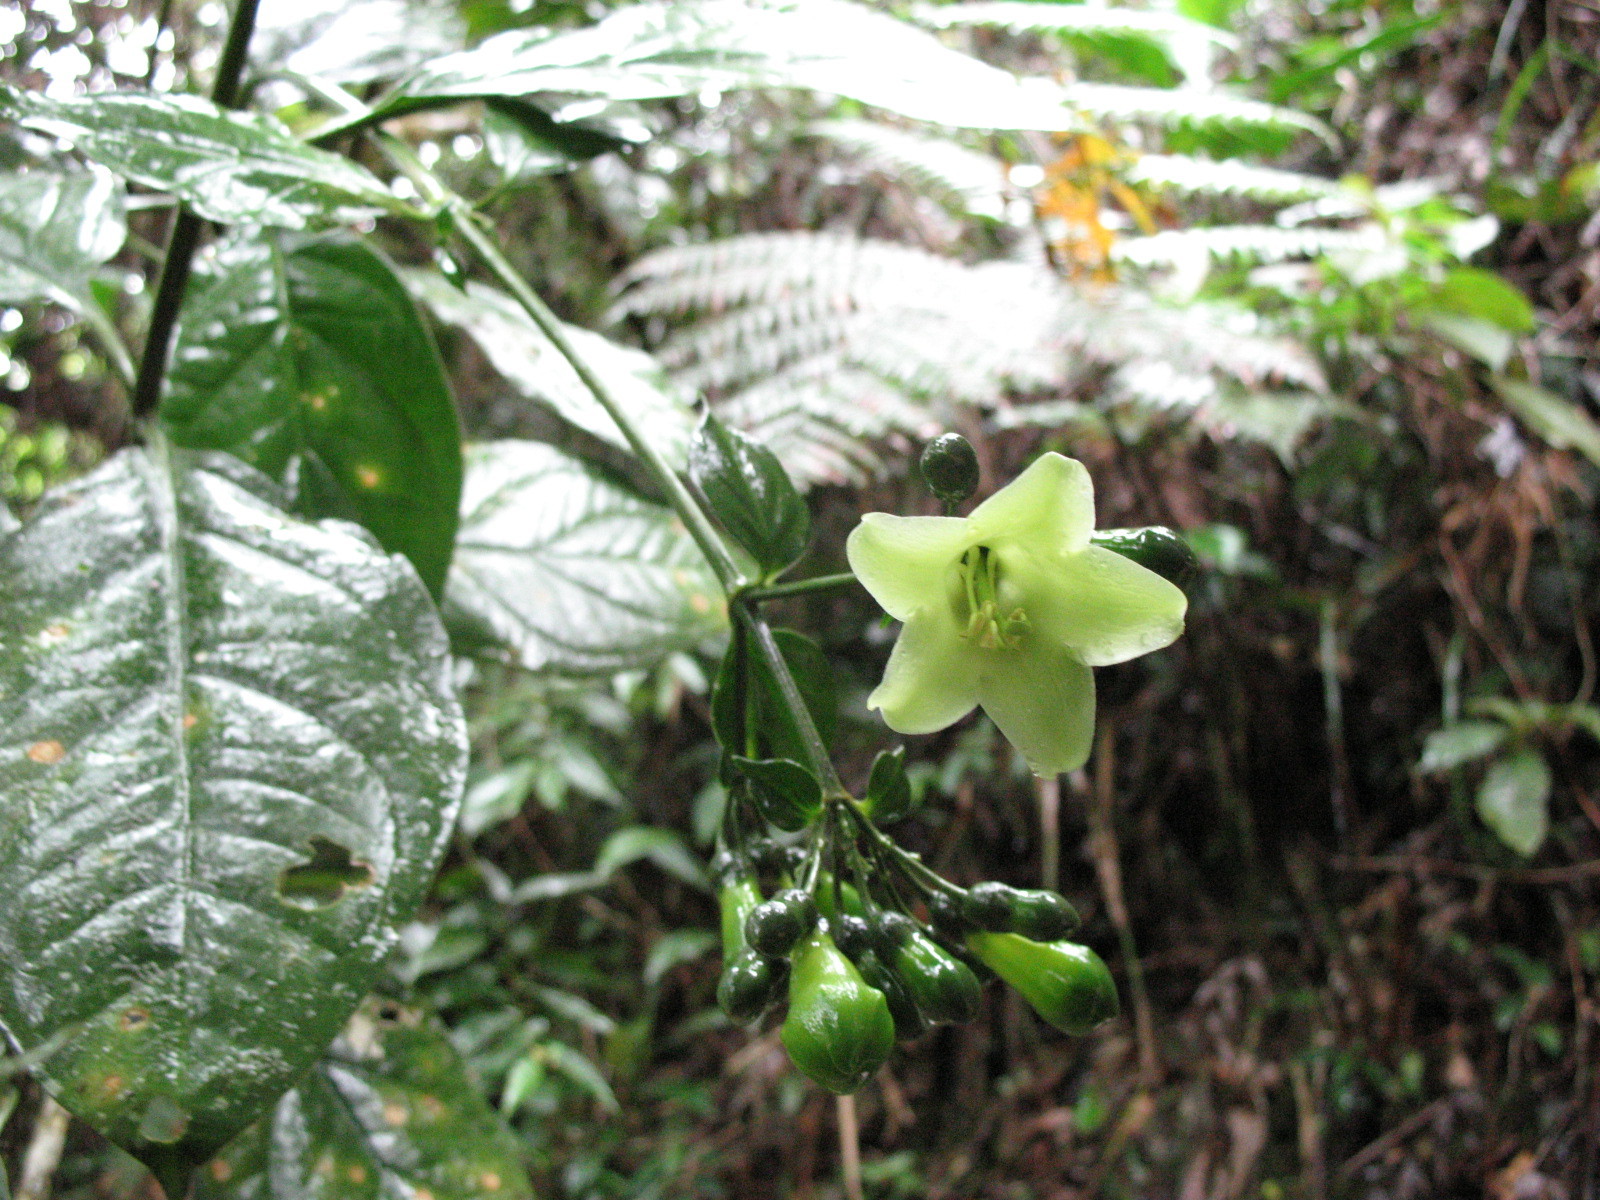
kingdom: Plantae
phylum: Tracheophyta
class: Magnoliopsida
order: Gentianales
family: Gentianaceae
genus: Macrocarpaea
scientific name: Macrocarpaea lenae
